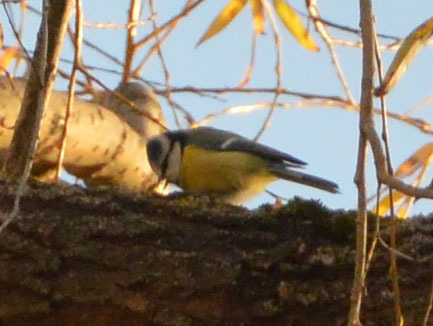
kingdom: Animalia
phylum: Chordata
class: Aves
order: Passeriformes
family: Paridae
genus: Cyanistes
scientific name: Cyanistes caeruleus
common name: Eurasian blue tit
